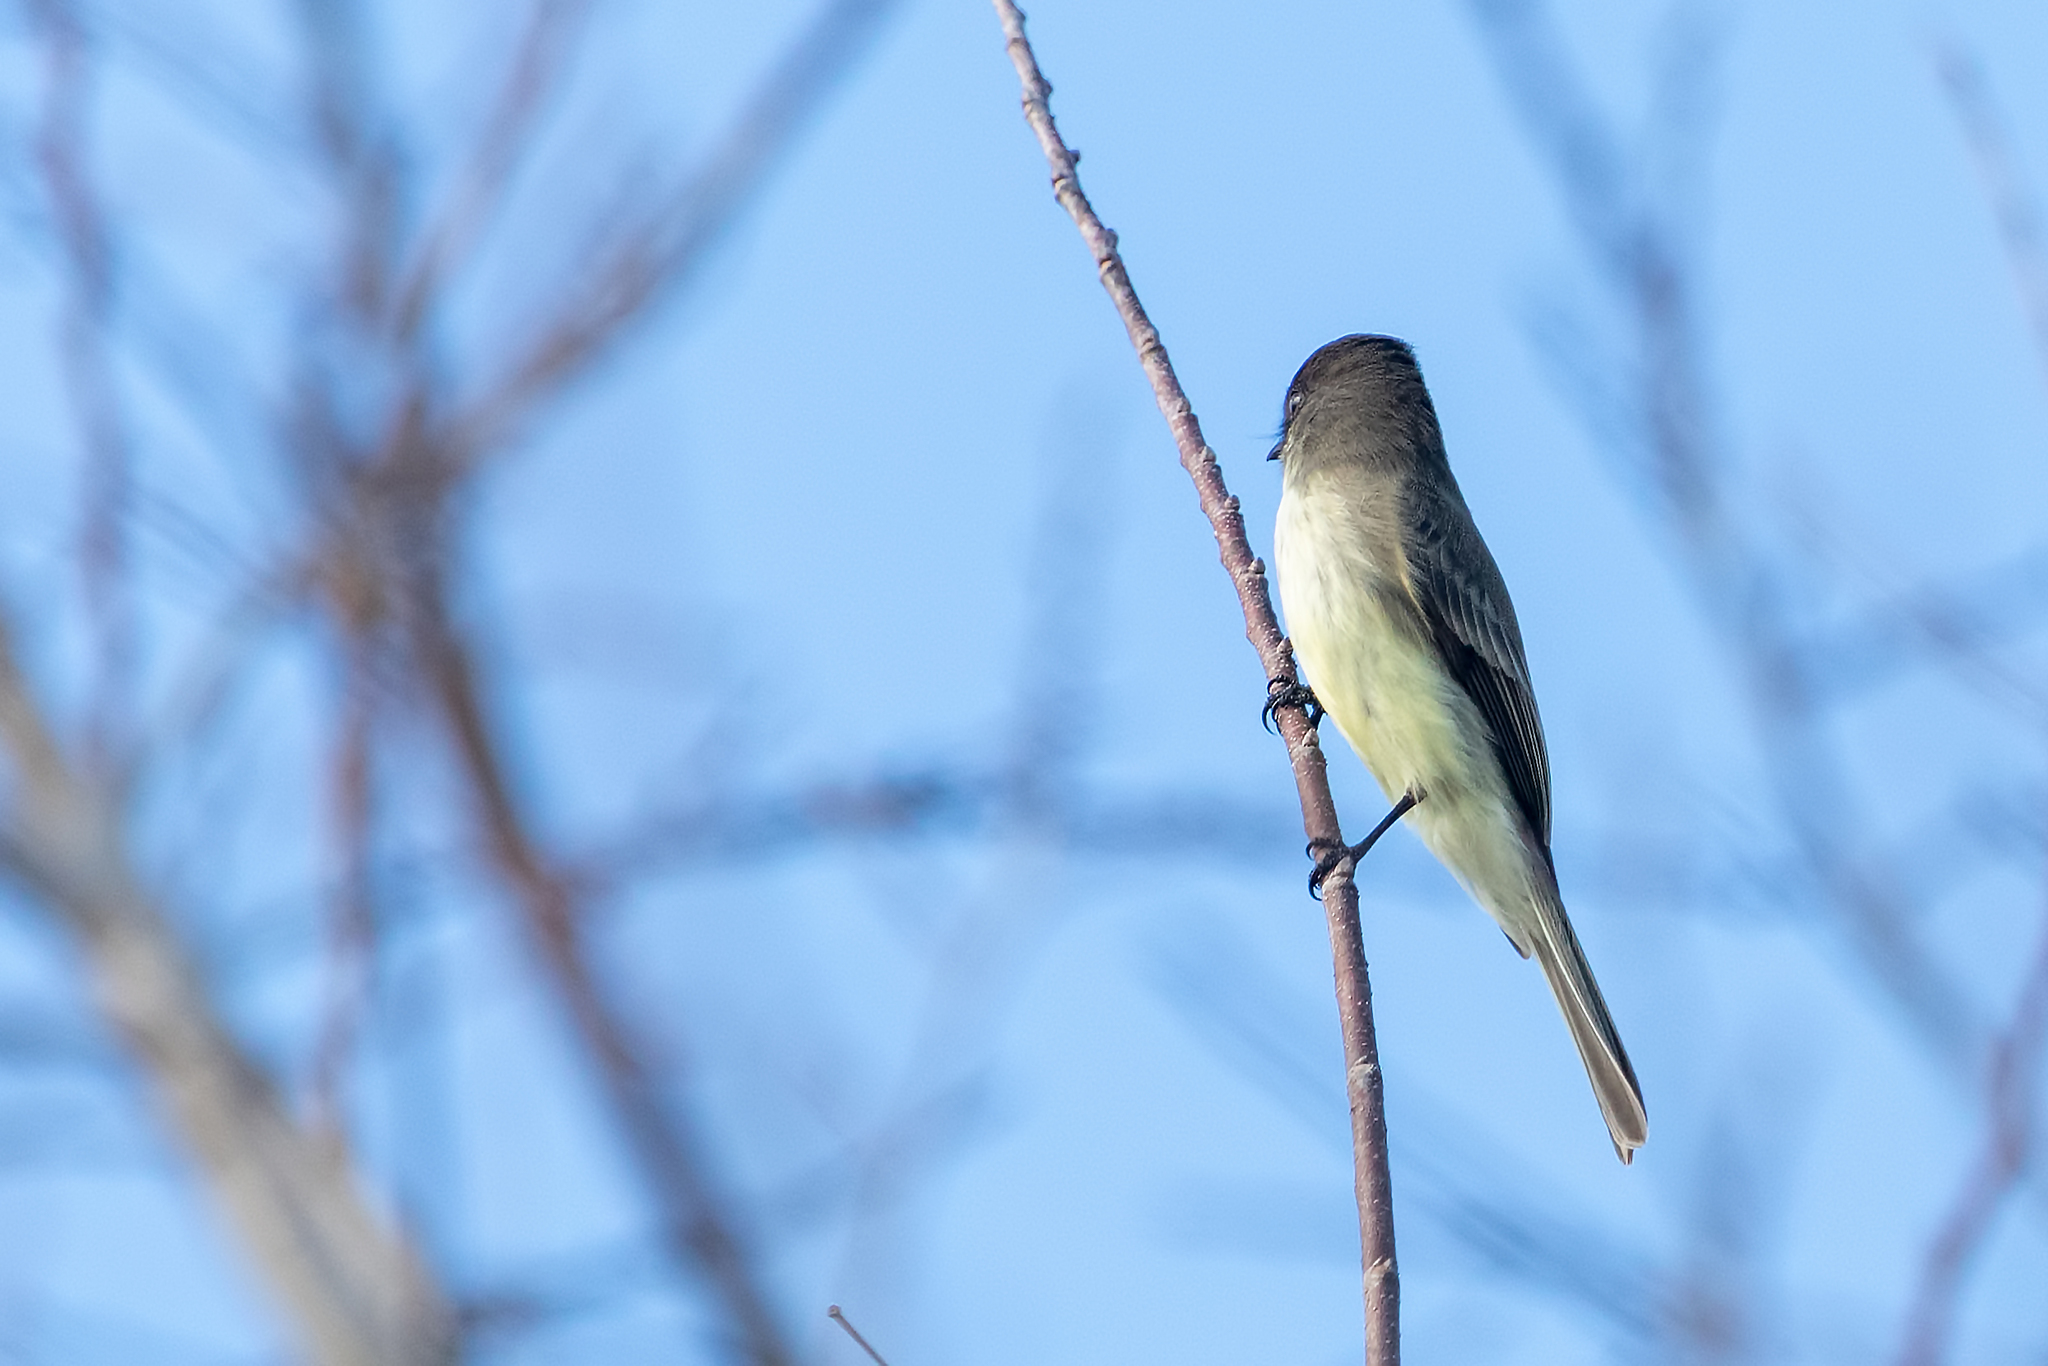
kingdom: Animalia
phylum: Chordata
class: Aves
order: Passeriformes
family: Tyrannidae
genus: Sayornis
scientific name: Sayornis phoebe
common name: Eastern phoebe
